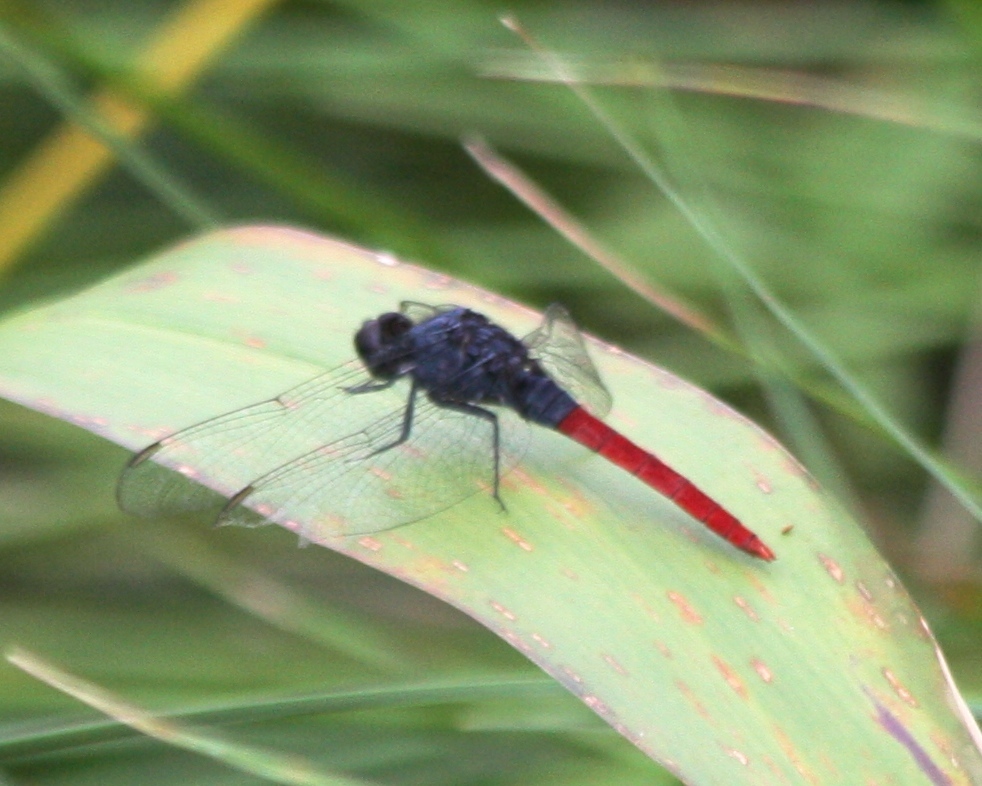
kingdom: Animalia
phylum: Arthropoda
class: Insecta
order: Odonata
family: Libellulidae
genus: Erythemis
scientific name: Erythemis peruviana
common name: Flame-tailed pondhawk
